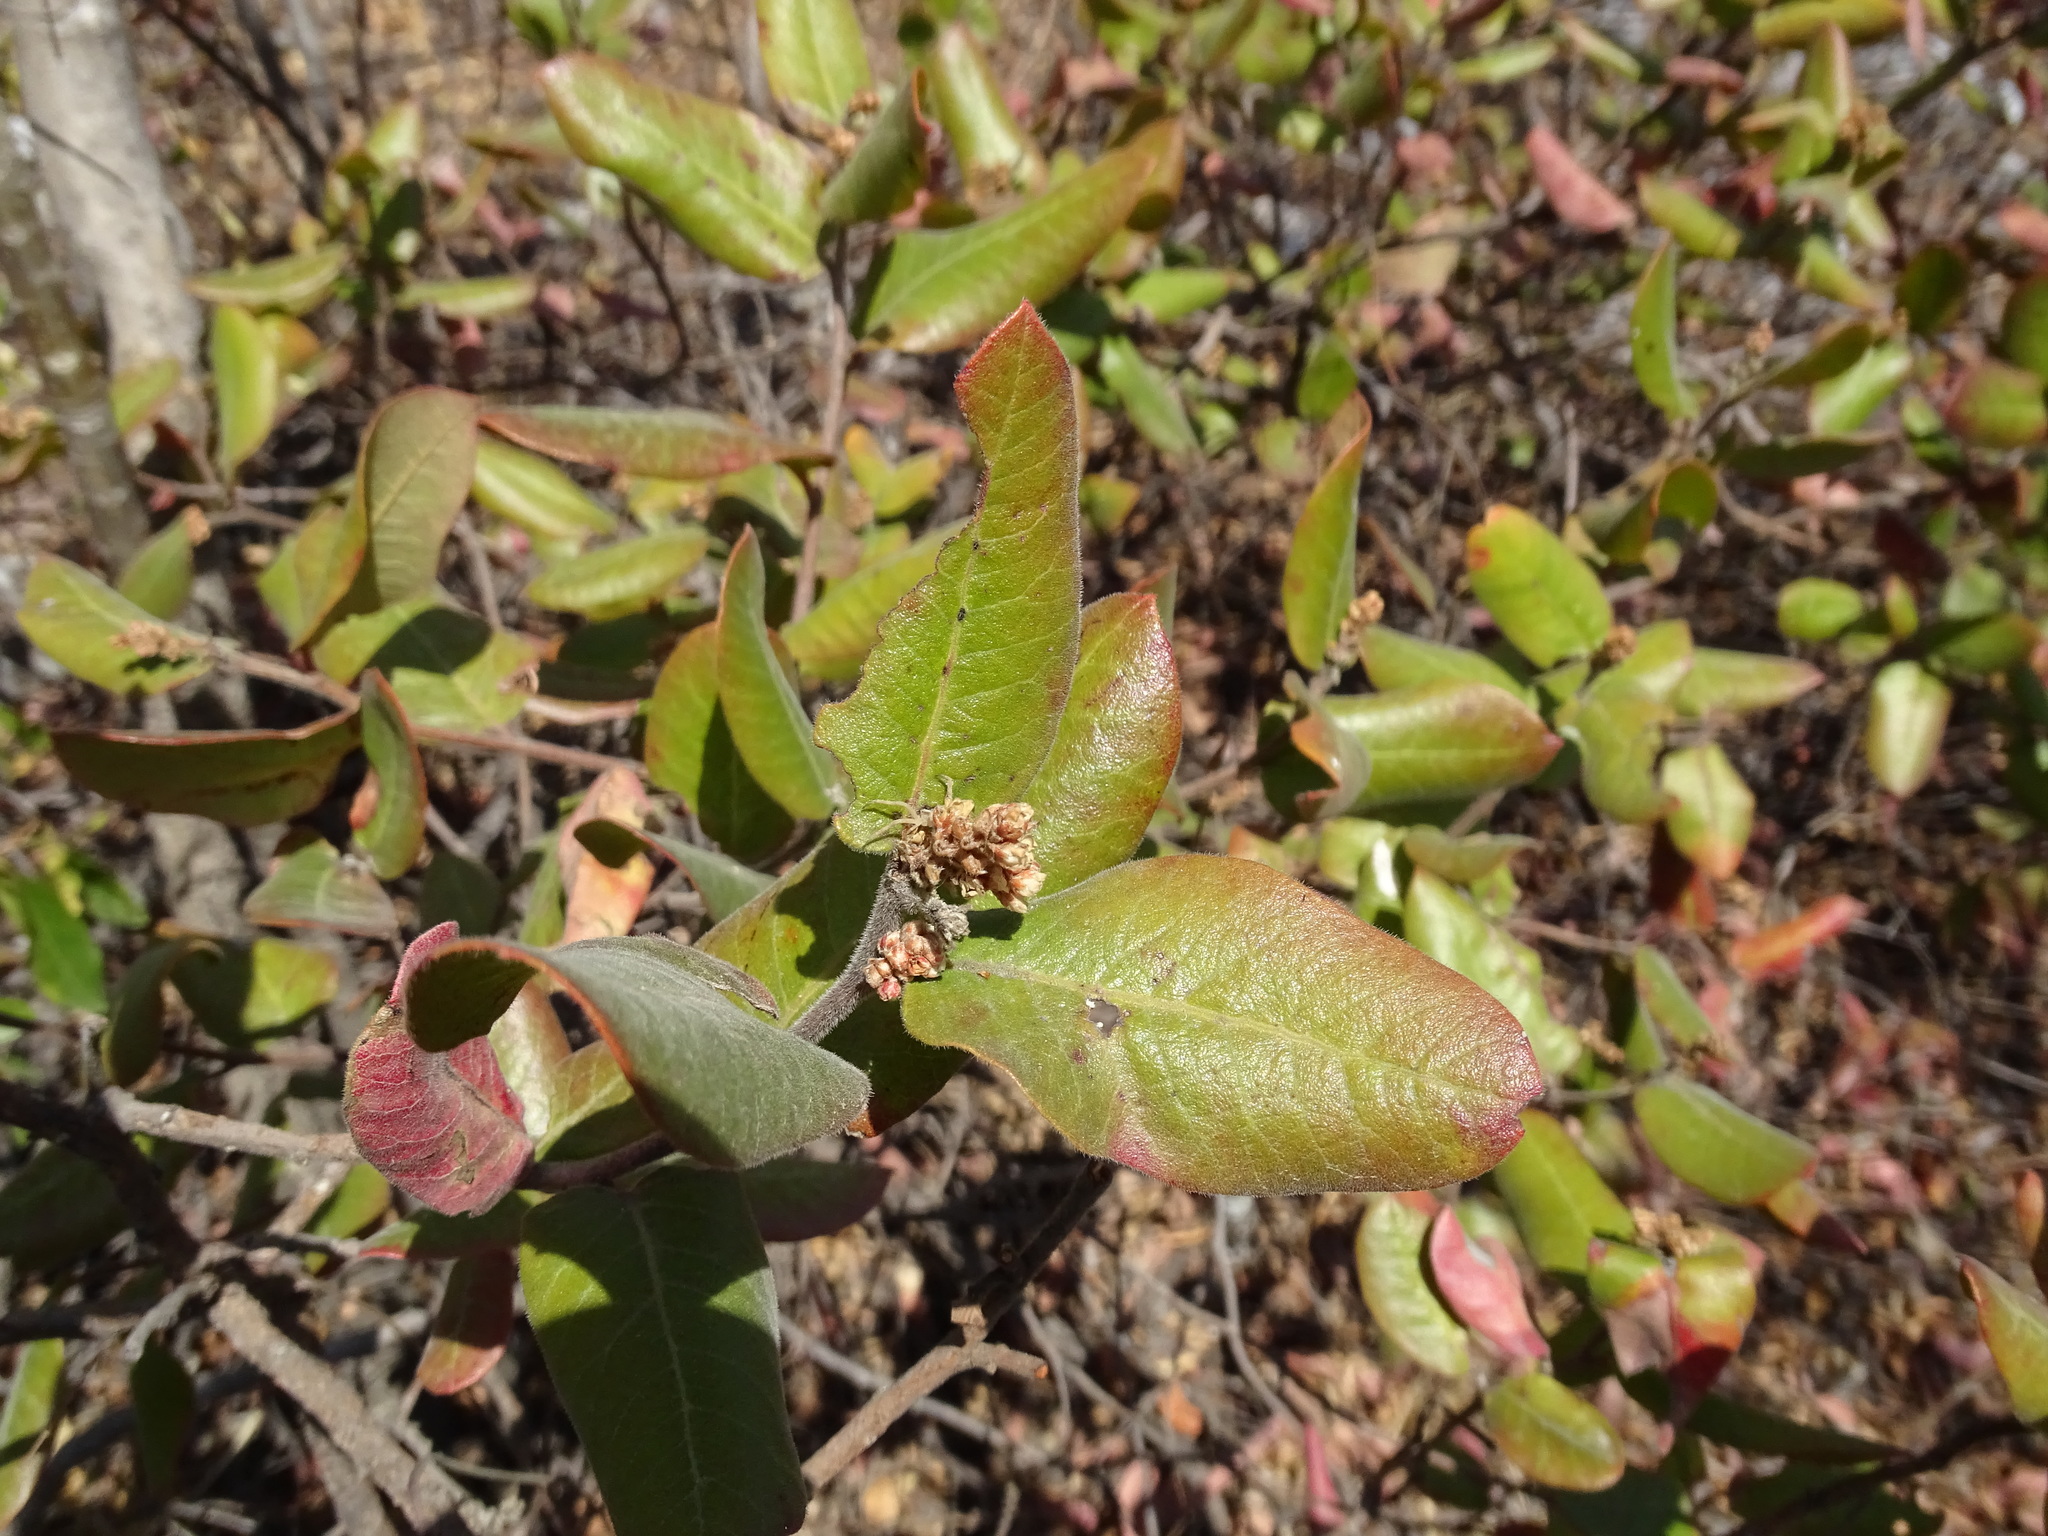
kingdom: Plantae
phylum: Tracheophyta
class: Magnoliopsida
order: Sapindales
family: Anacardiaceae
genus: Rhus
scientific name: Rhus standleyi
